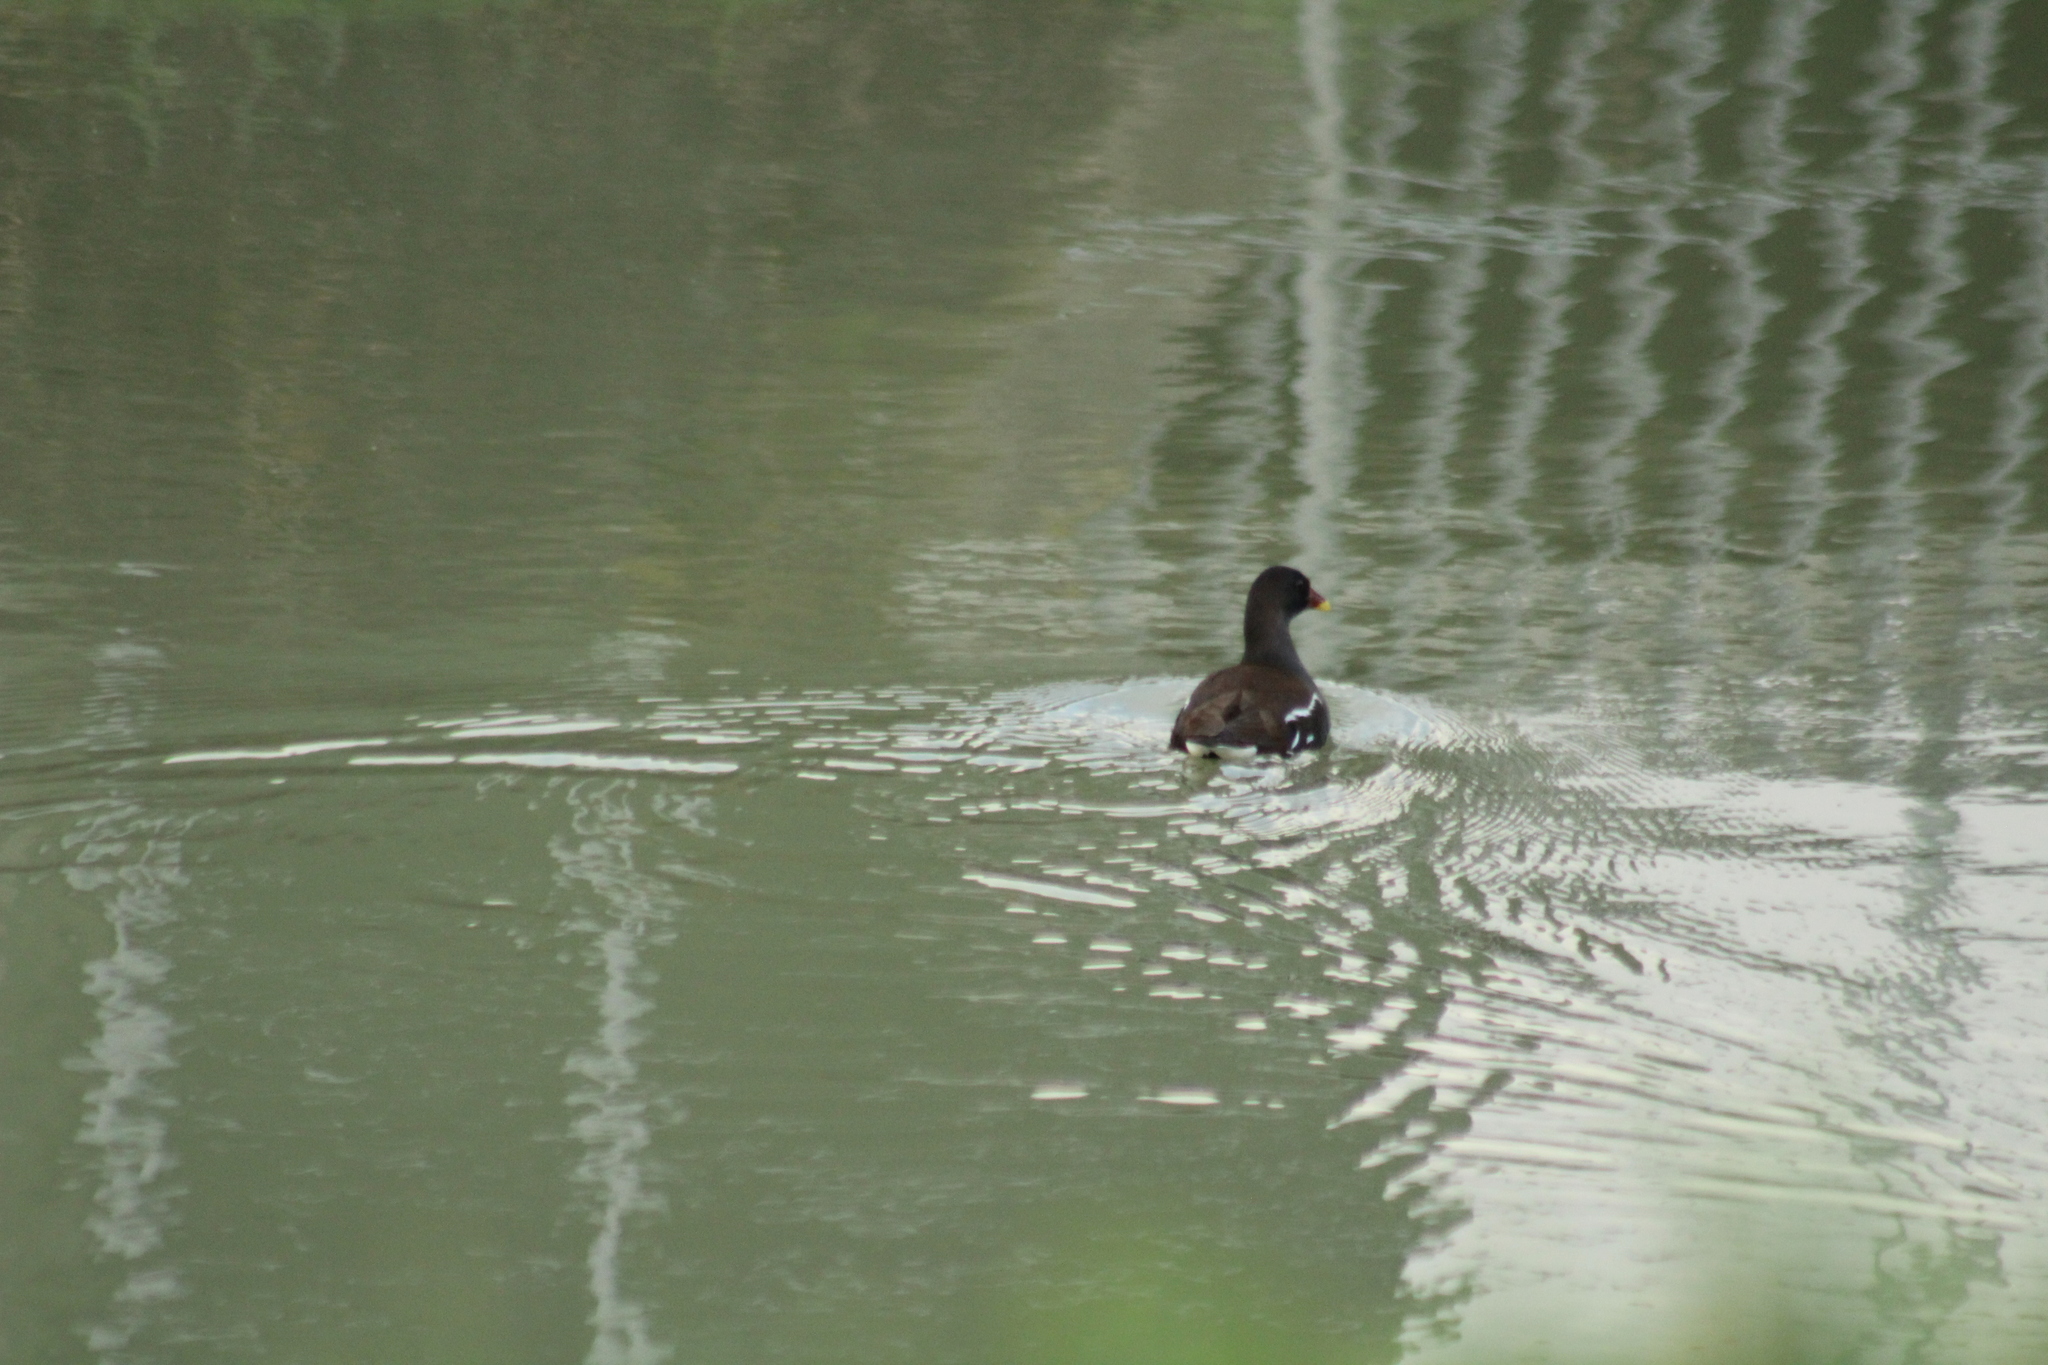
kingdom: Animalia
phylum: Chordata
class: Aves
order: Gruiformes
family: Rallidae
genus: Gallinula
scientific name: Gallinula chloropus
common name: Common moorhen
